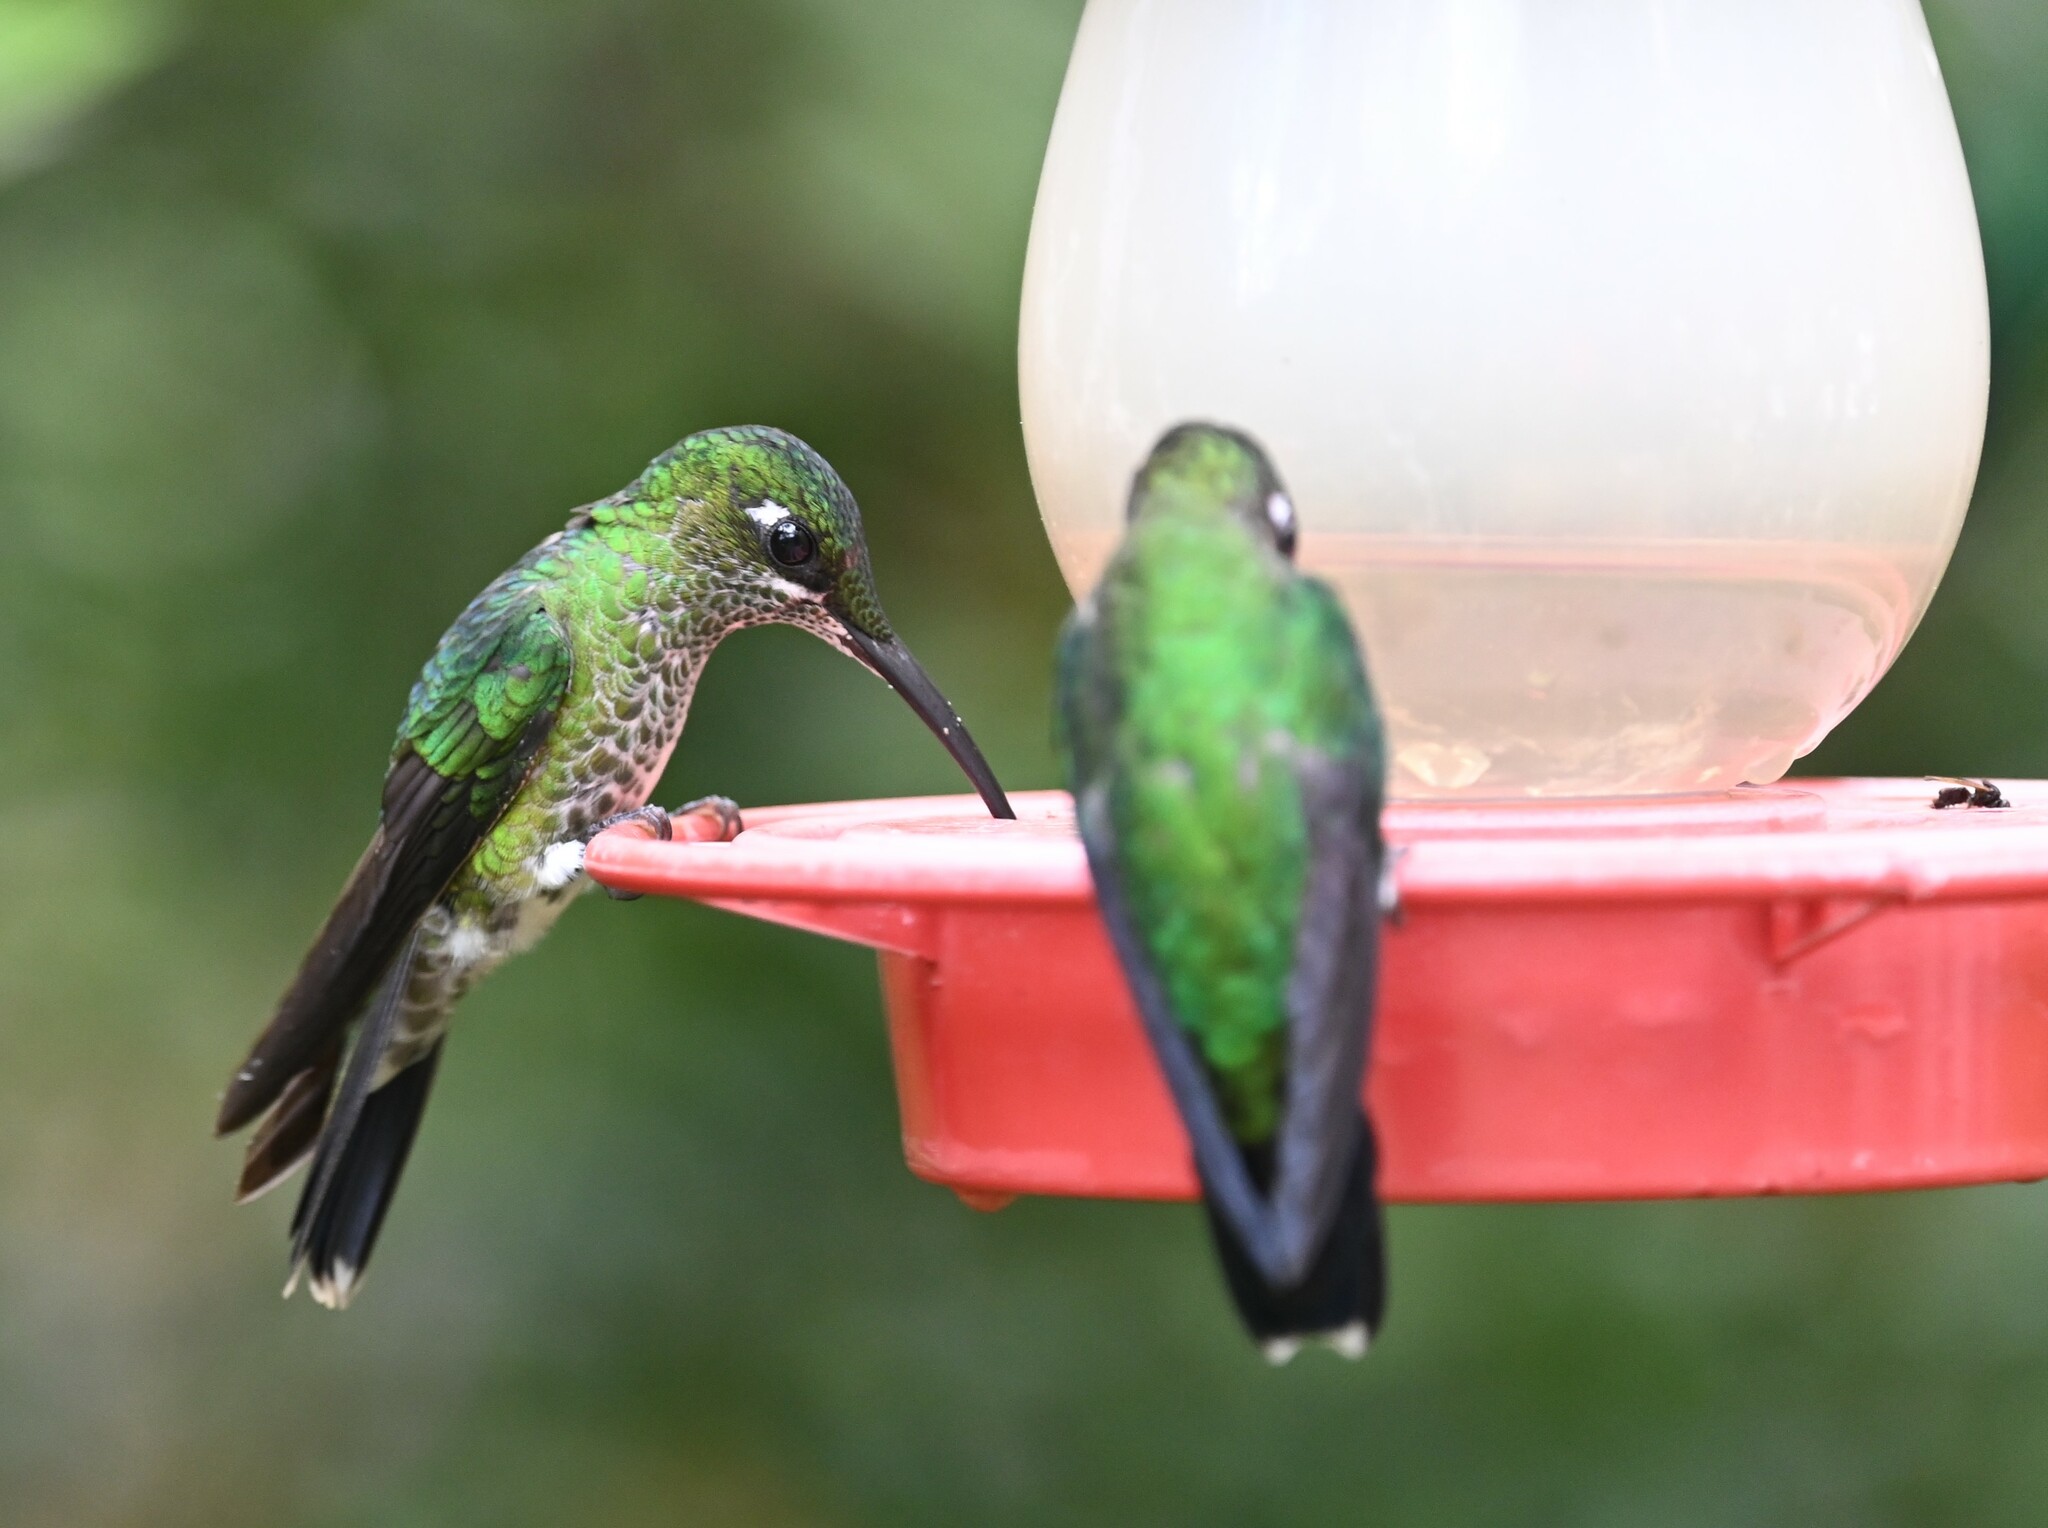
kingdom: Animalia
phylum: Chordata
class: Aves
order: Apodiformes
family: Trochilidae
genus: Heliodoxa
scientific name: Heliodoxa jacula
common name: Green-crowned brilliant
